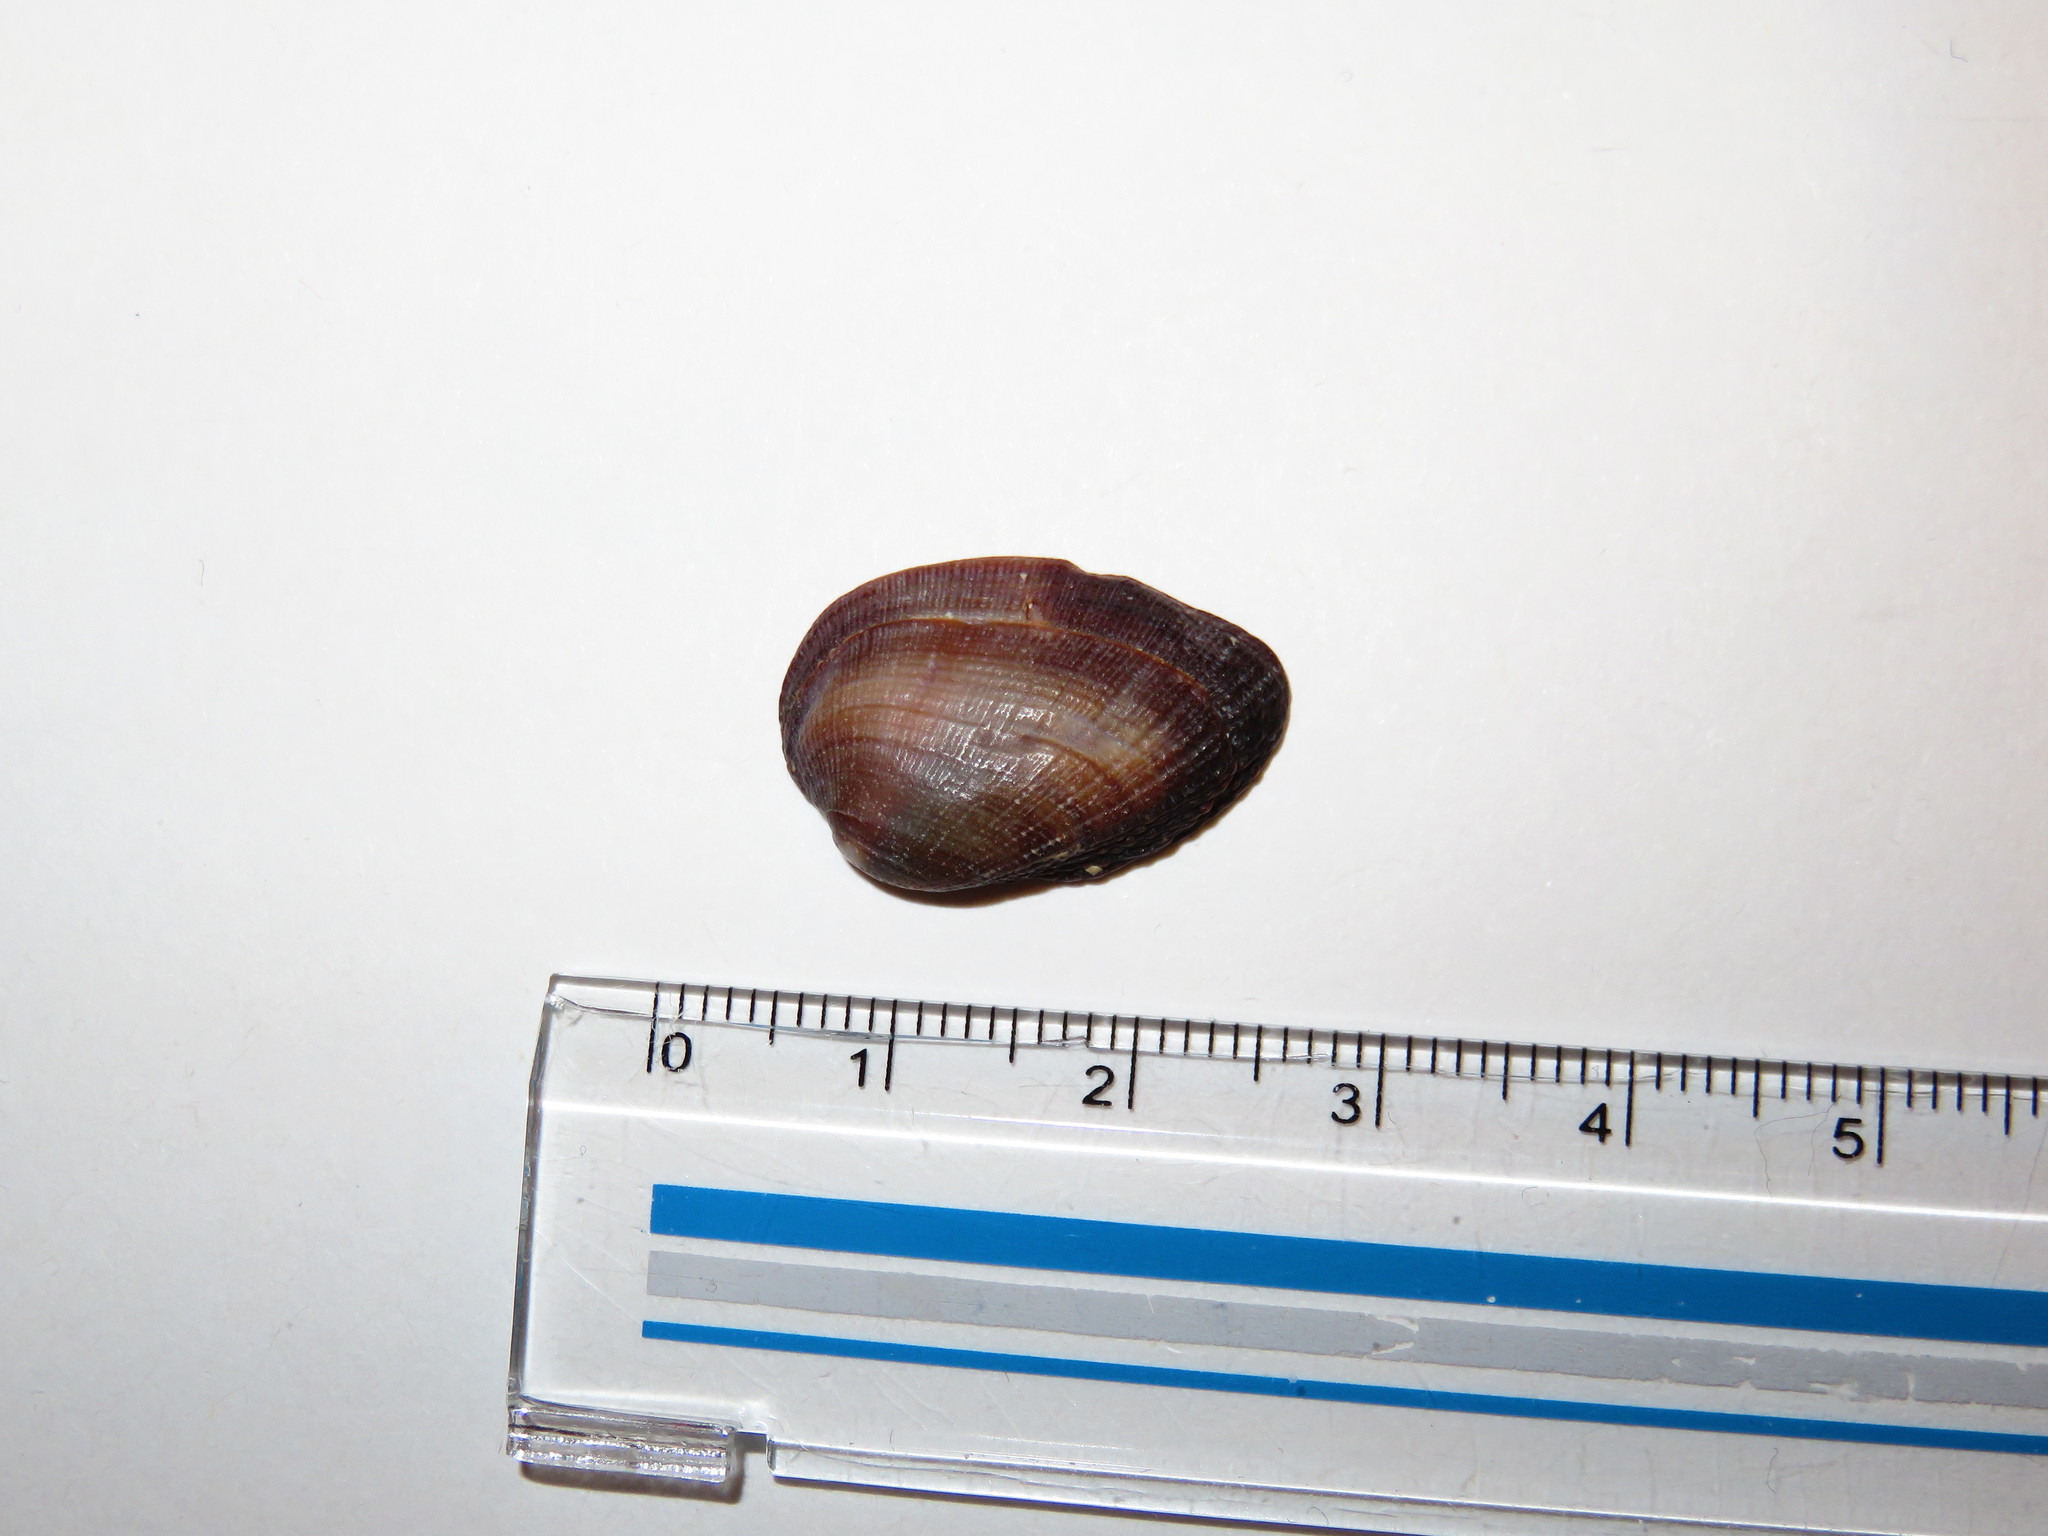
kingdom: Animalia
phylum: Mollusca
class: Bivalvia
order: Arcida
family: Arcidae
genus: Barbatia
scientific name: Barbatia amygdalumtostum
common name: Burnt-almond ark
